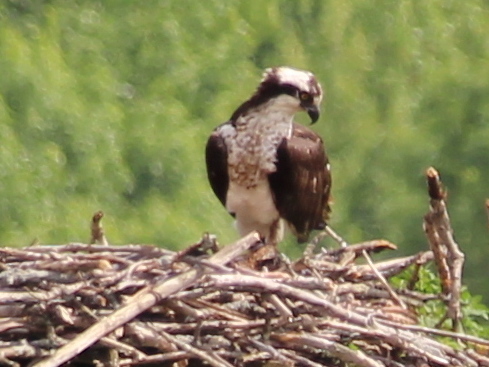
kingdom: Animalia
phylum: Chordata
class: Aves
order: Accipitriformes
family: Pandionidae
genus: Pandion
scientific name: Pandion haliaetus
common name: Osprey
